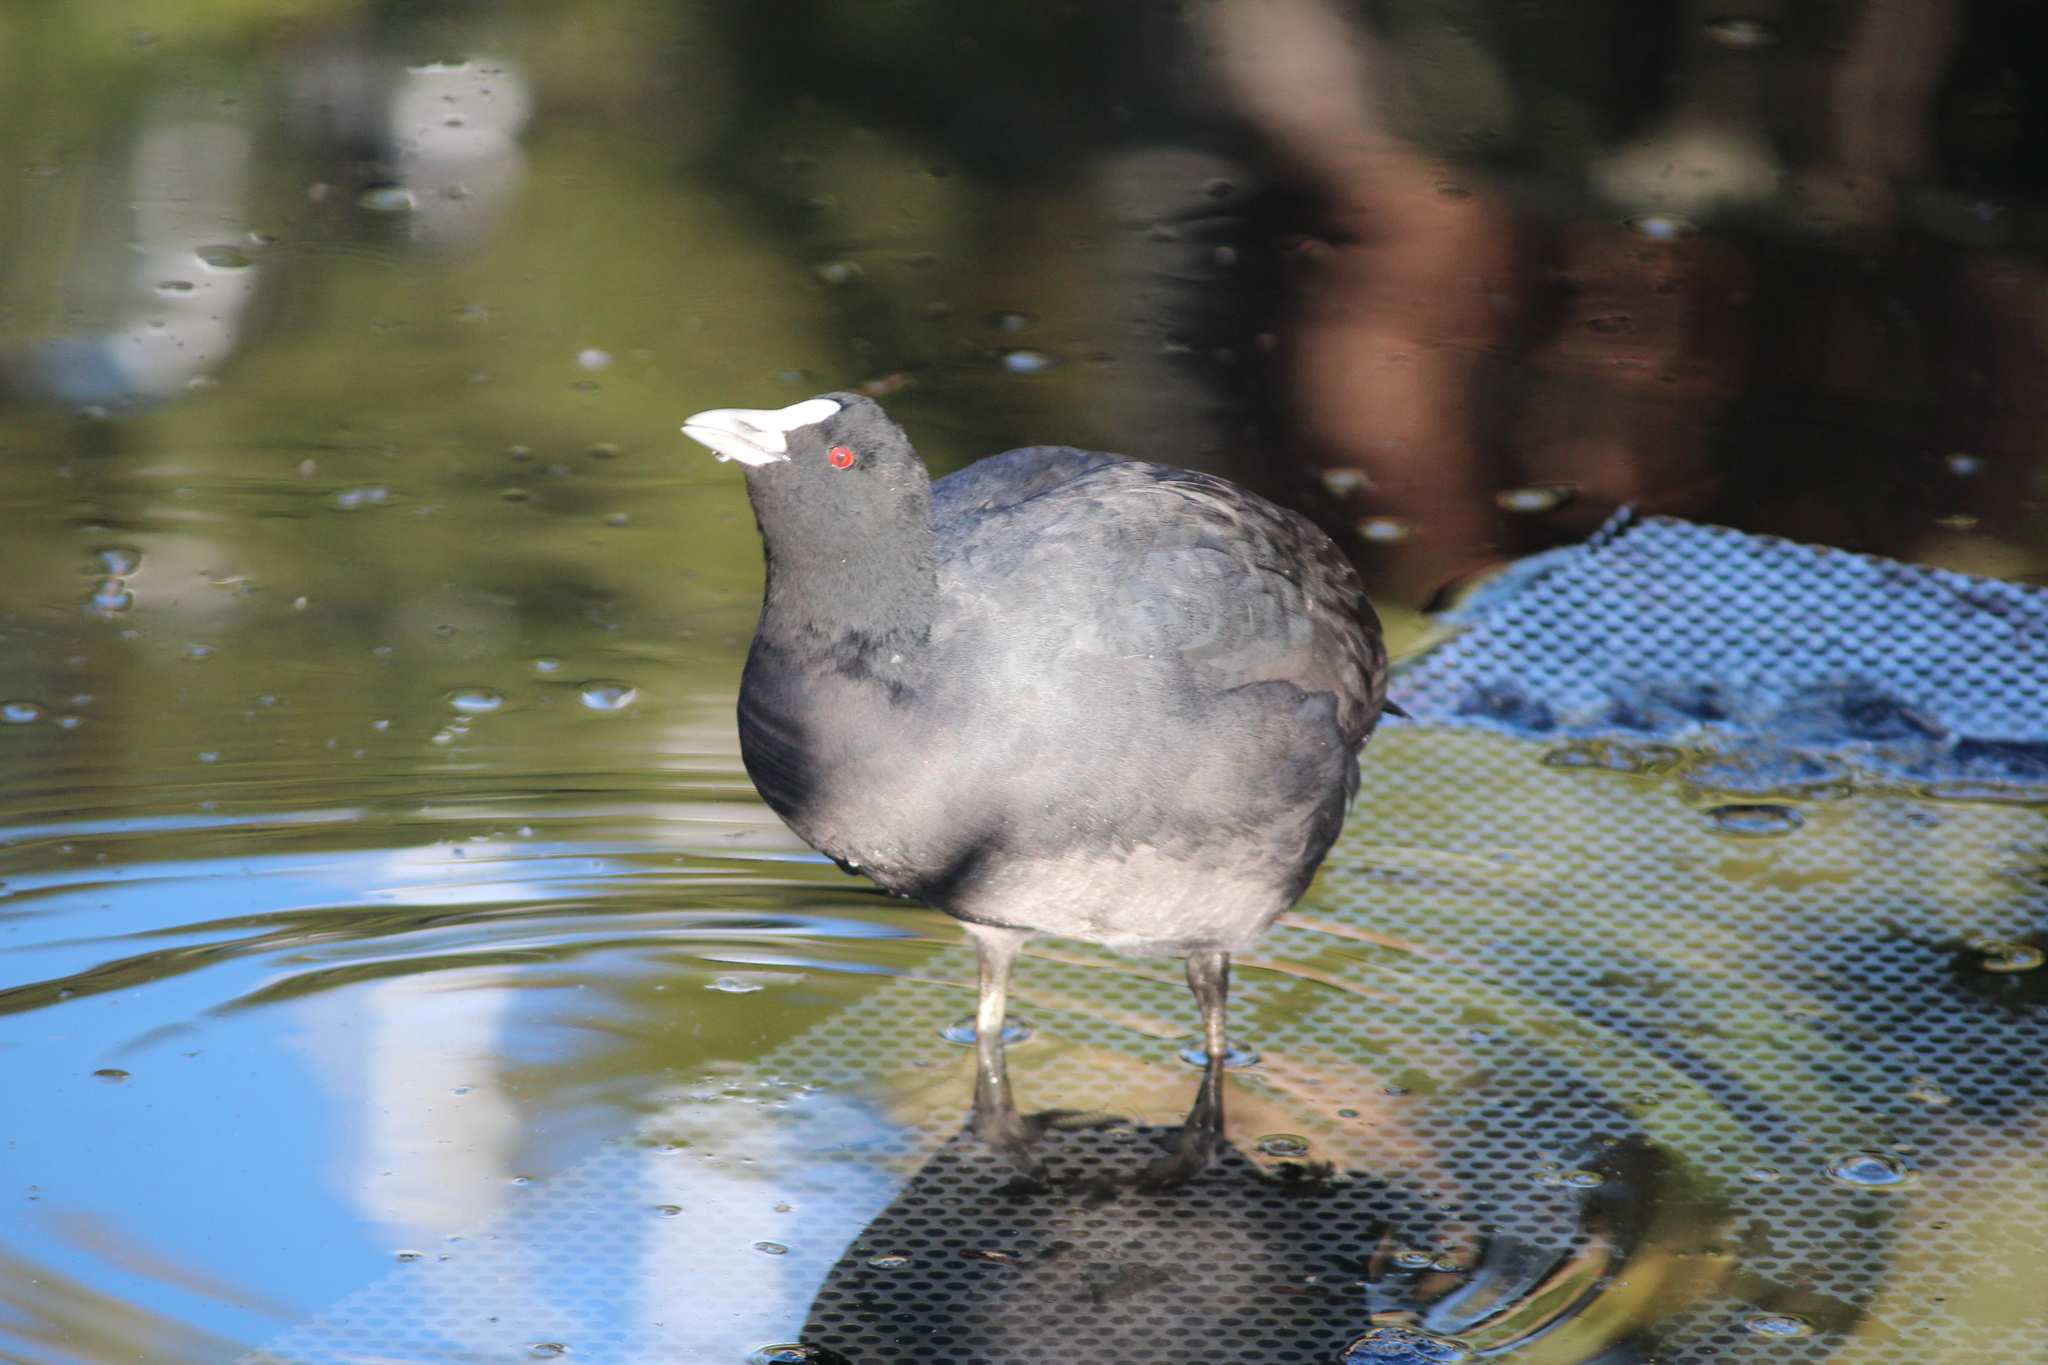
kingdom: Animalia
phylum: Chordata
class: Aves
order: Gruiformes
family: Rallidae
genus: Fulica
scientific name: Fulica atra
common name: Eurasian coot
